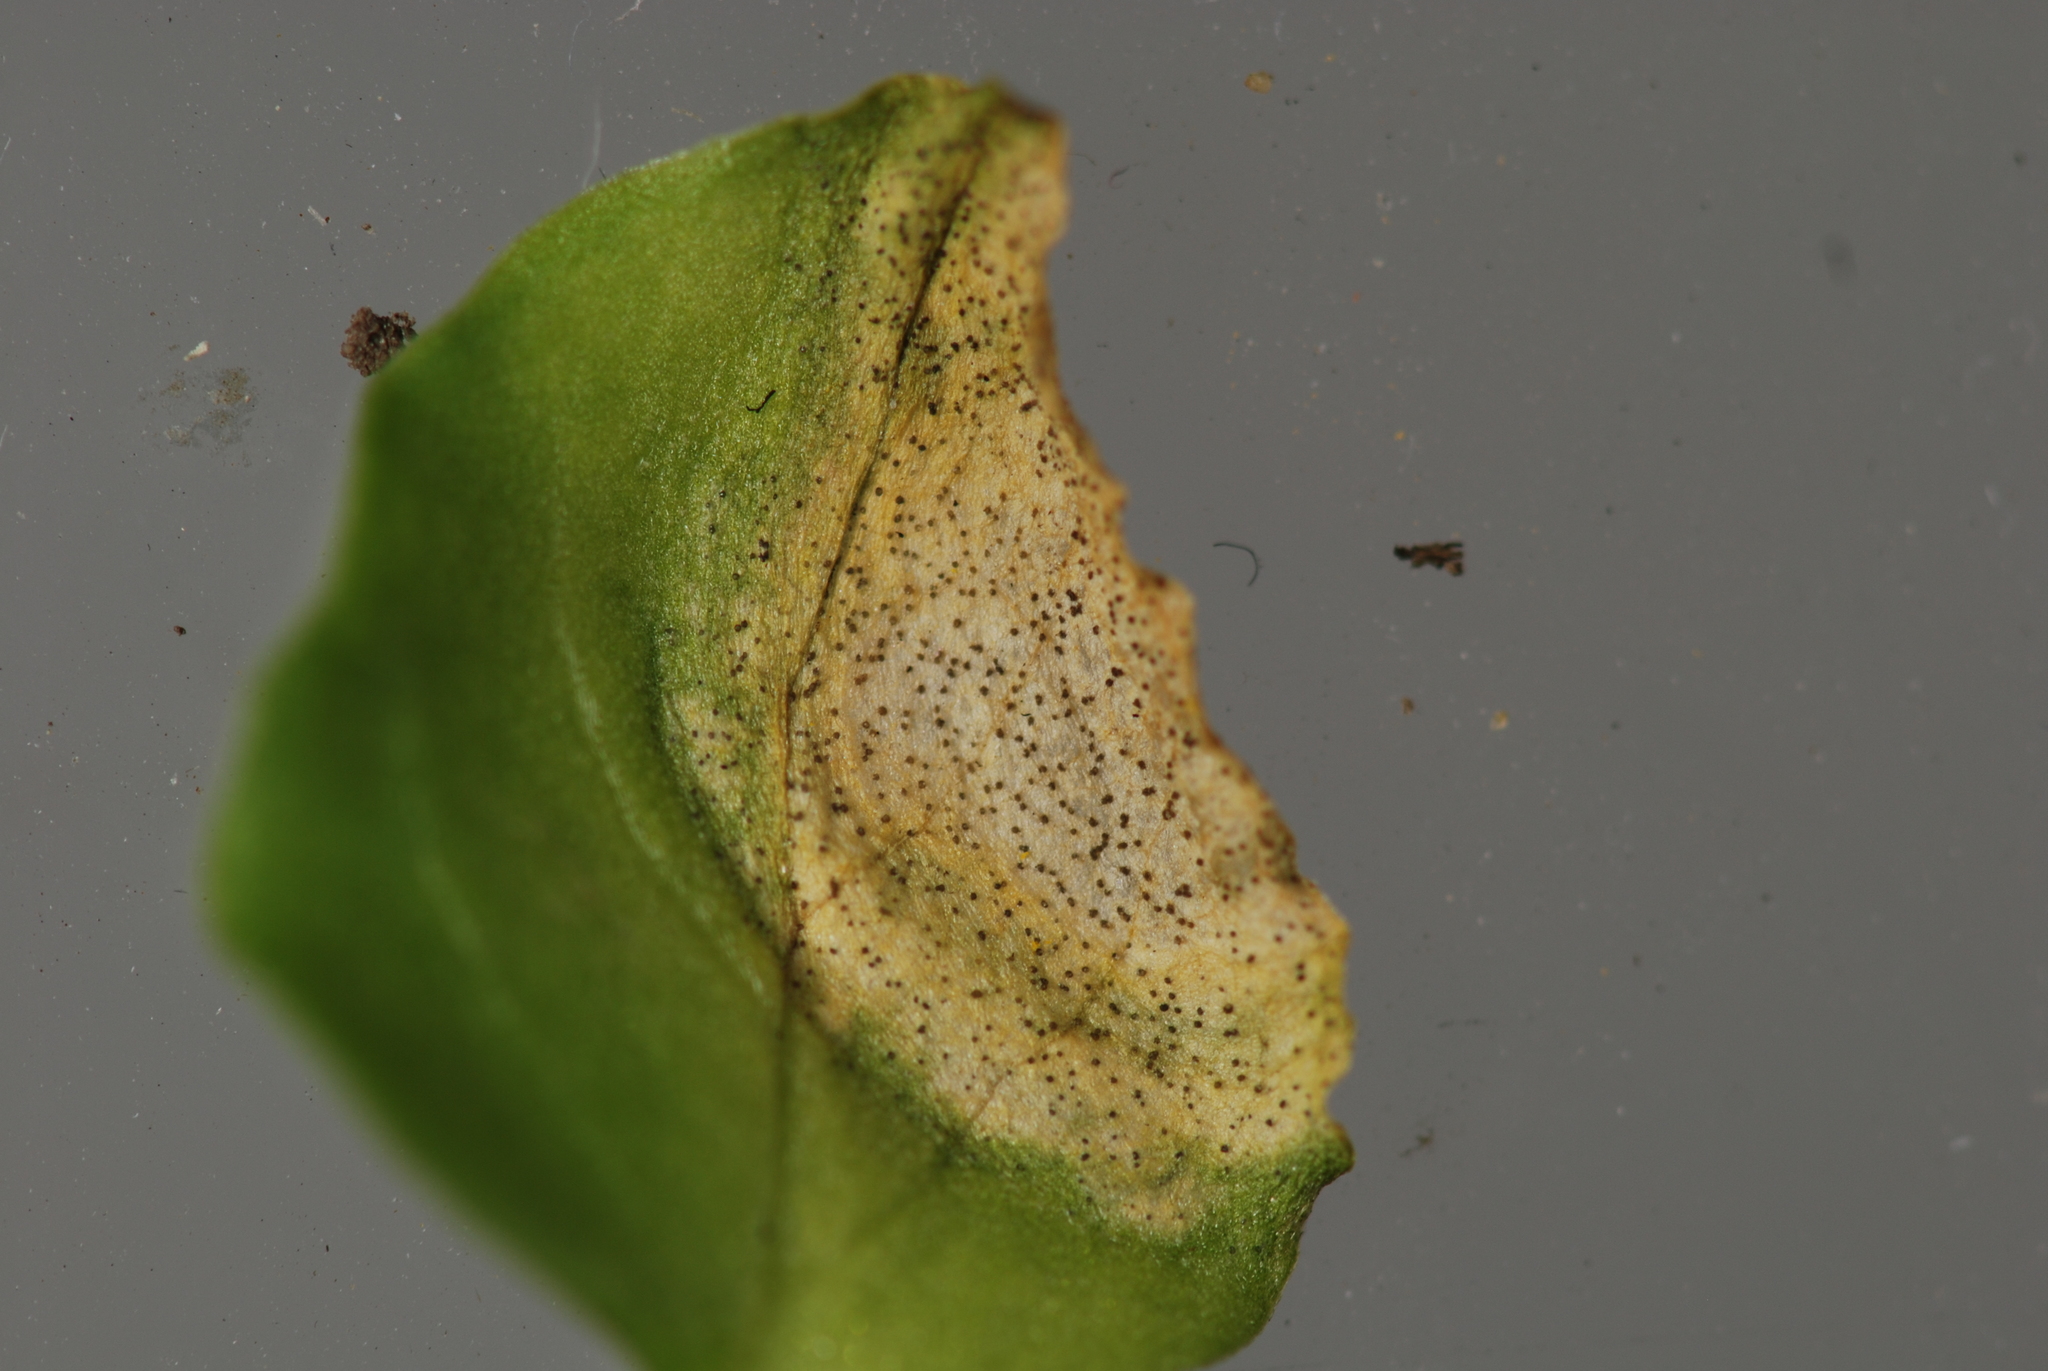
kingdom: Fungi
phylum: Ascomycota
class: Dothideomycetes
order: Mycosphaerellales
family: Mycosphaerellaceae
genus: Septoria
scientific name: Septoria stellariae
